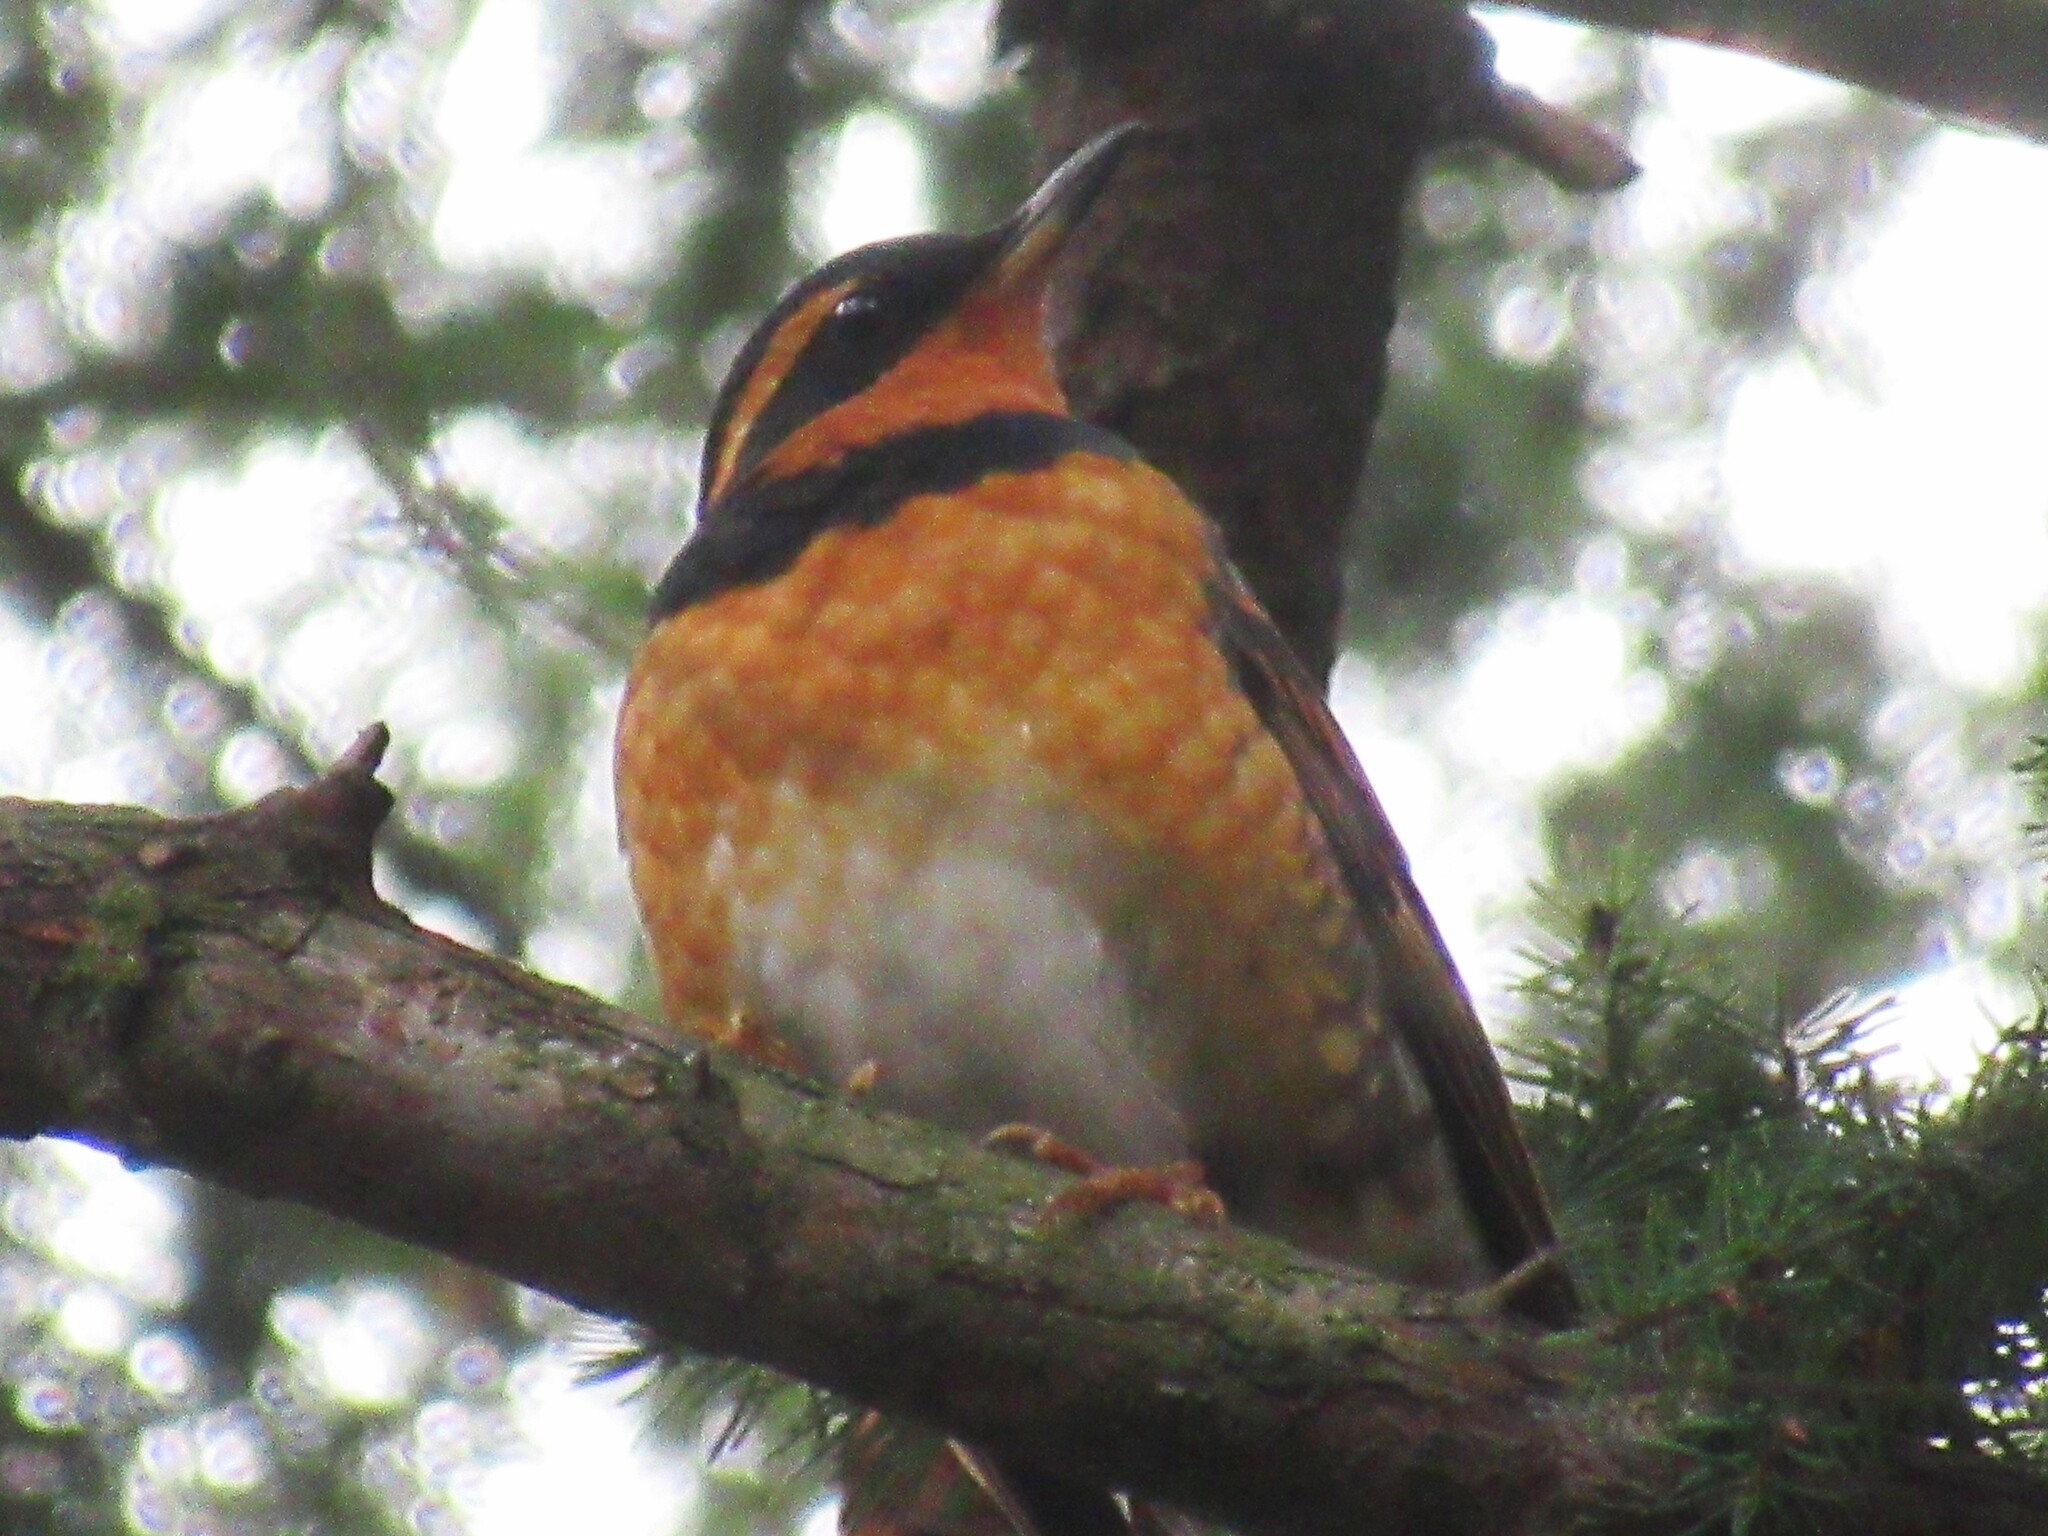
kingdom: Animalia
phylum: Chordata
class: Aves
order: Passeriformes
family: Turdidae
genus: Ixoreus
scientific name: Ixoreus naevius
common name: Varied thrush
